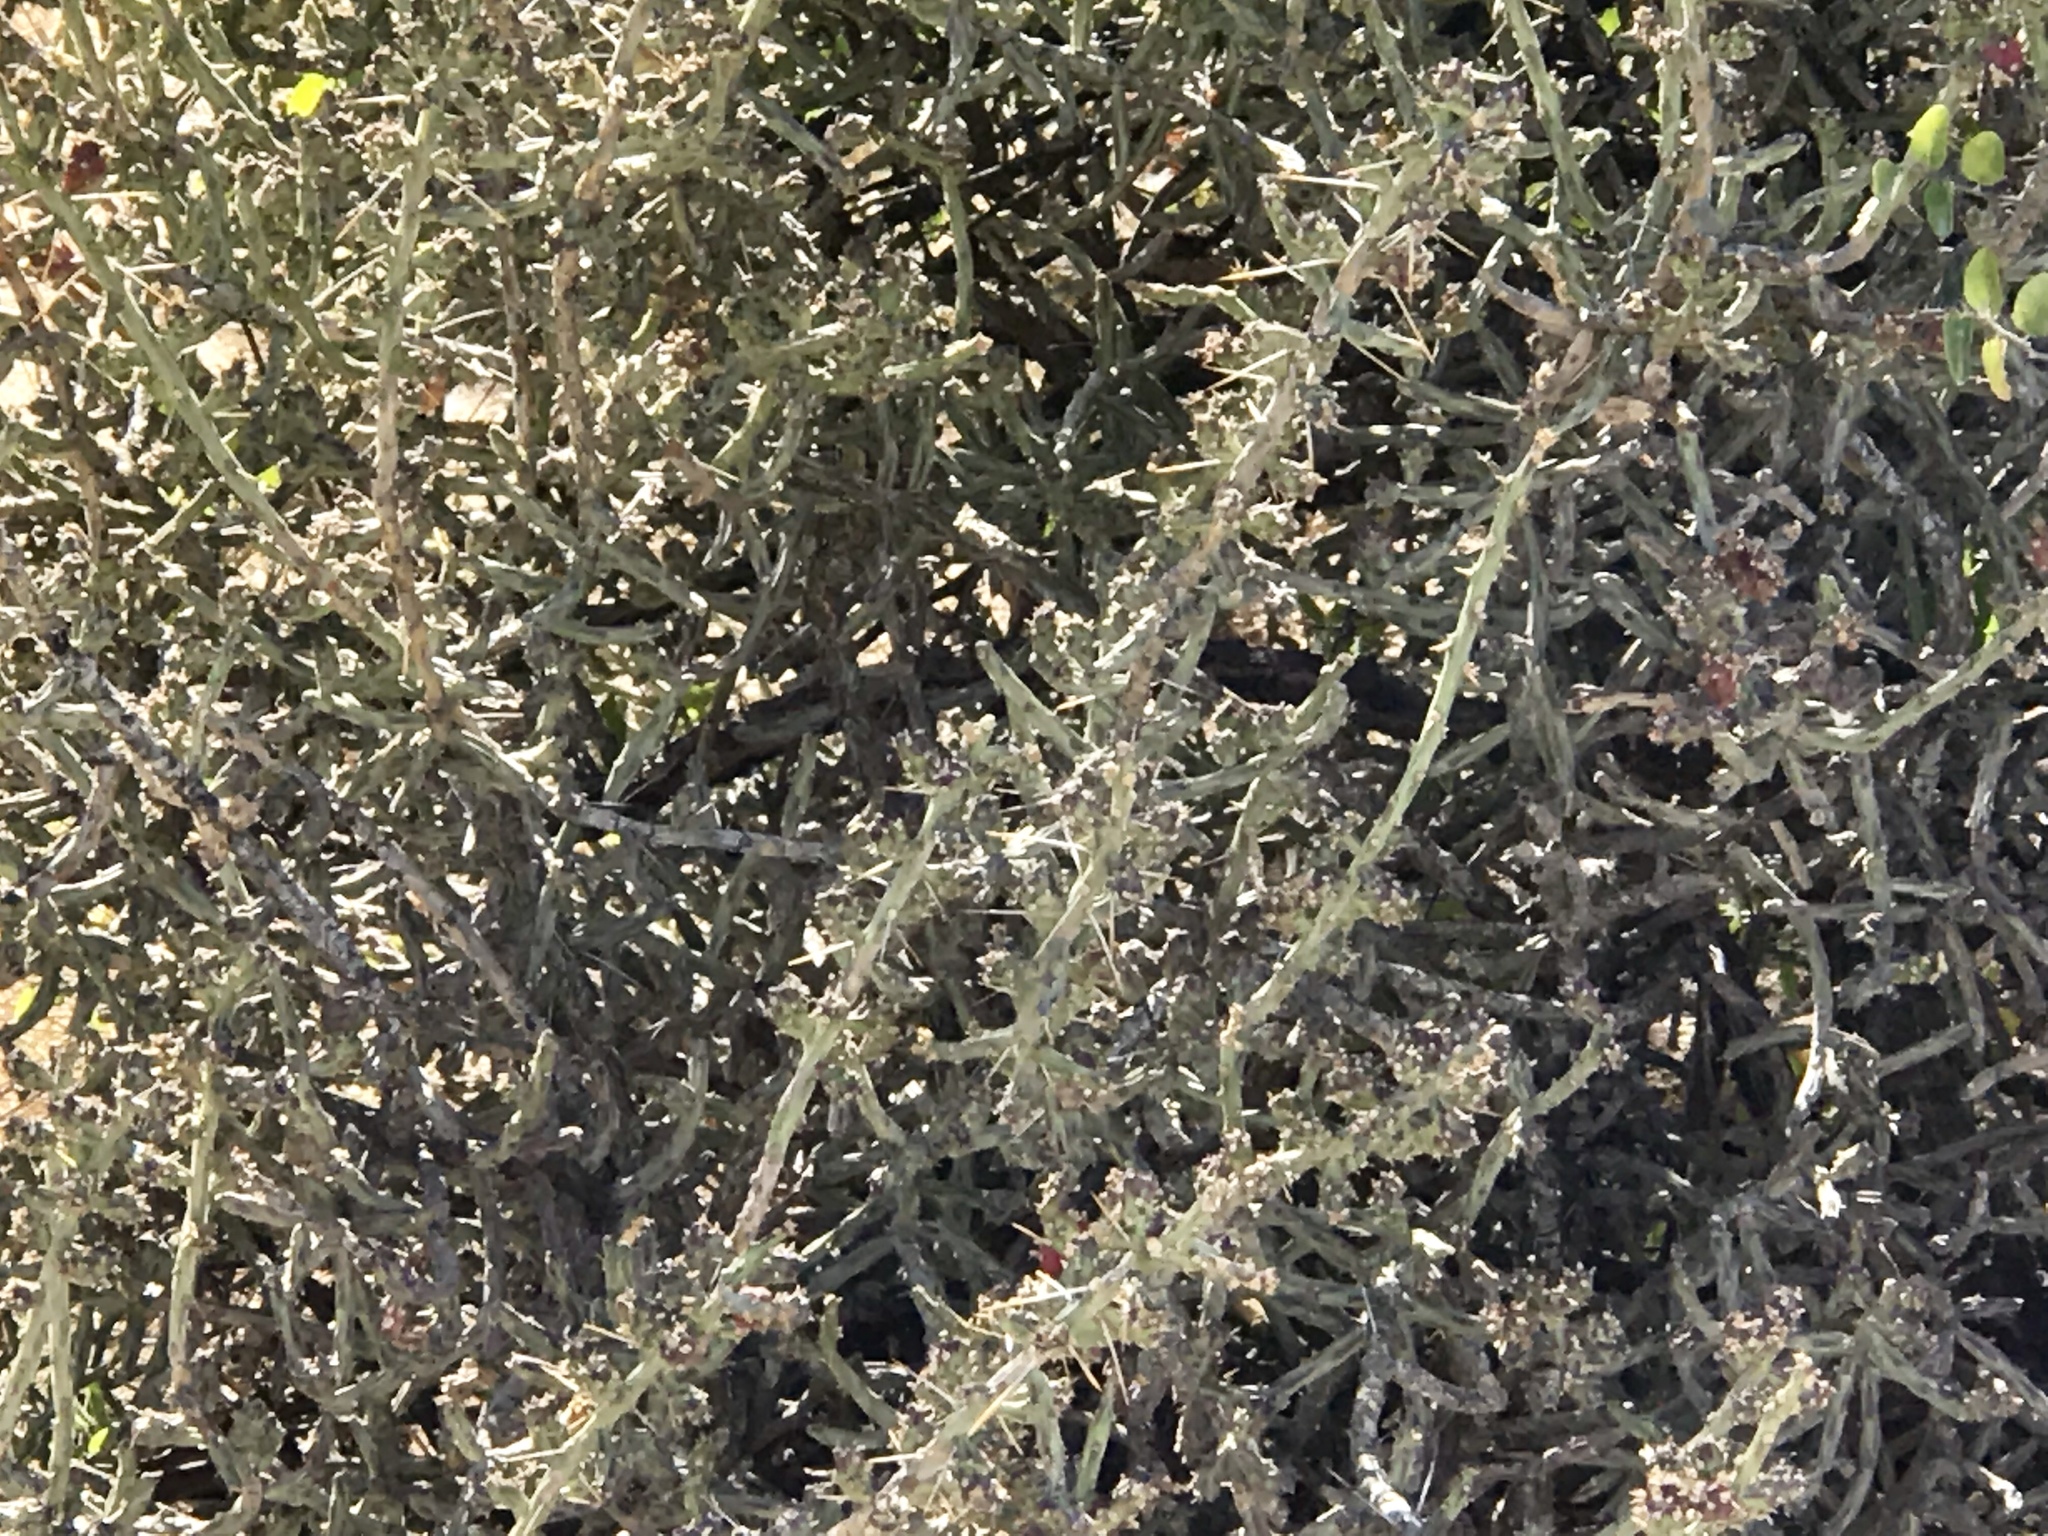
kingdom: Plantae
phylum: Tracheophyta
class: Magnoliopsida
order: Caryophyllales
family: Cactaceae
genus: Cylindropuntia
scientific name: Cylindropuntia leptocaulis
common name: Christmas cactus
